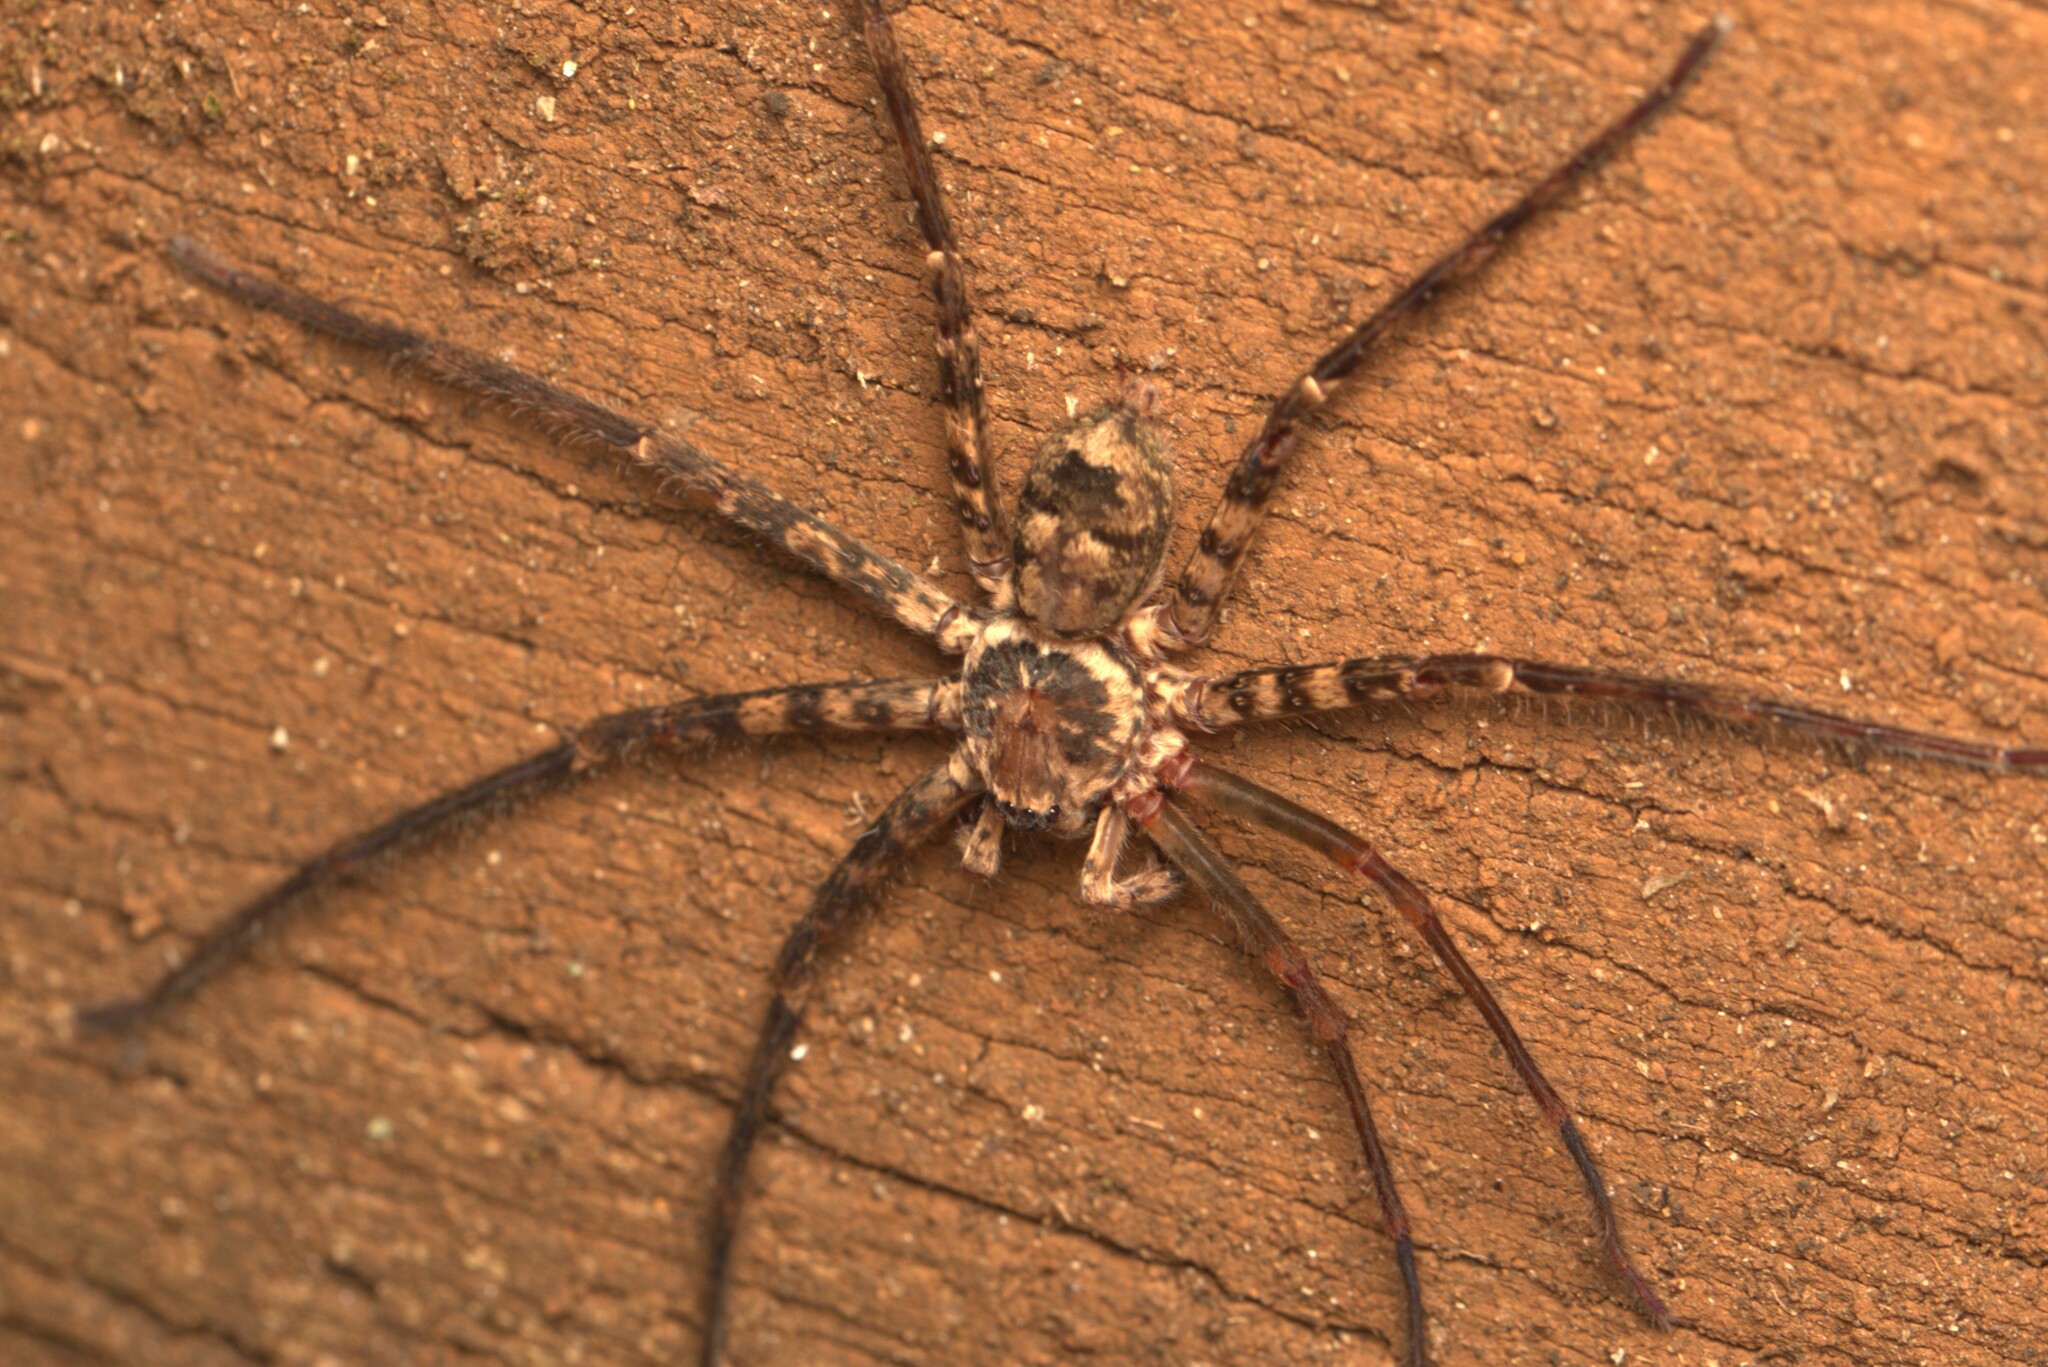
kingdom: Animalia
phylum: Arthropoda
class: Arachnida
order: Araneae
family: Sparassidae
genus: Heteropoda
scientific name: Heteropoda procera
